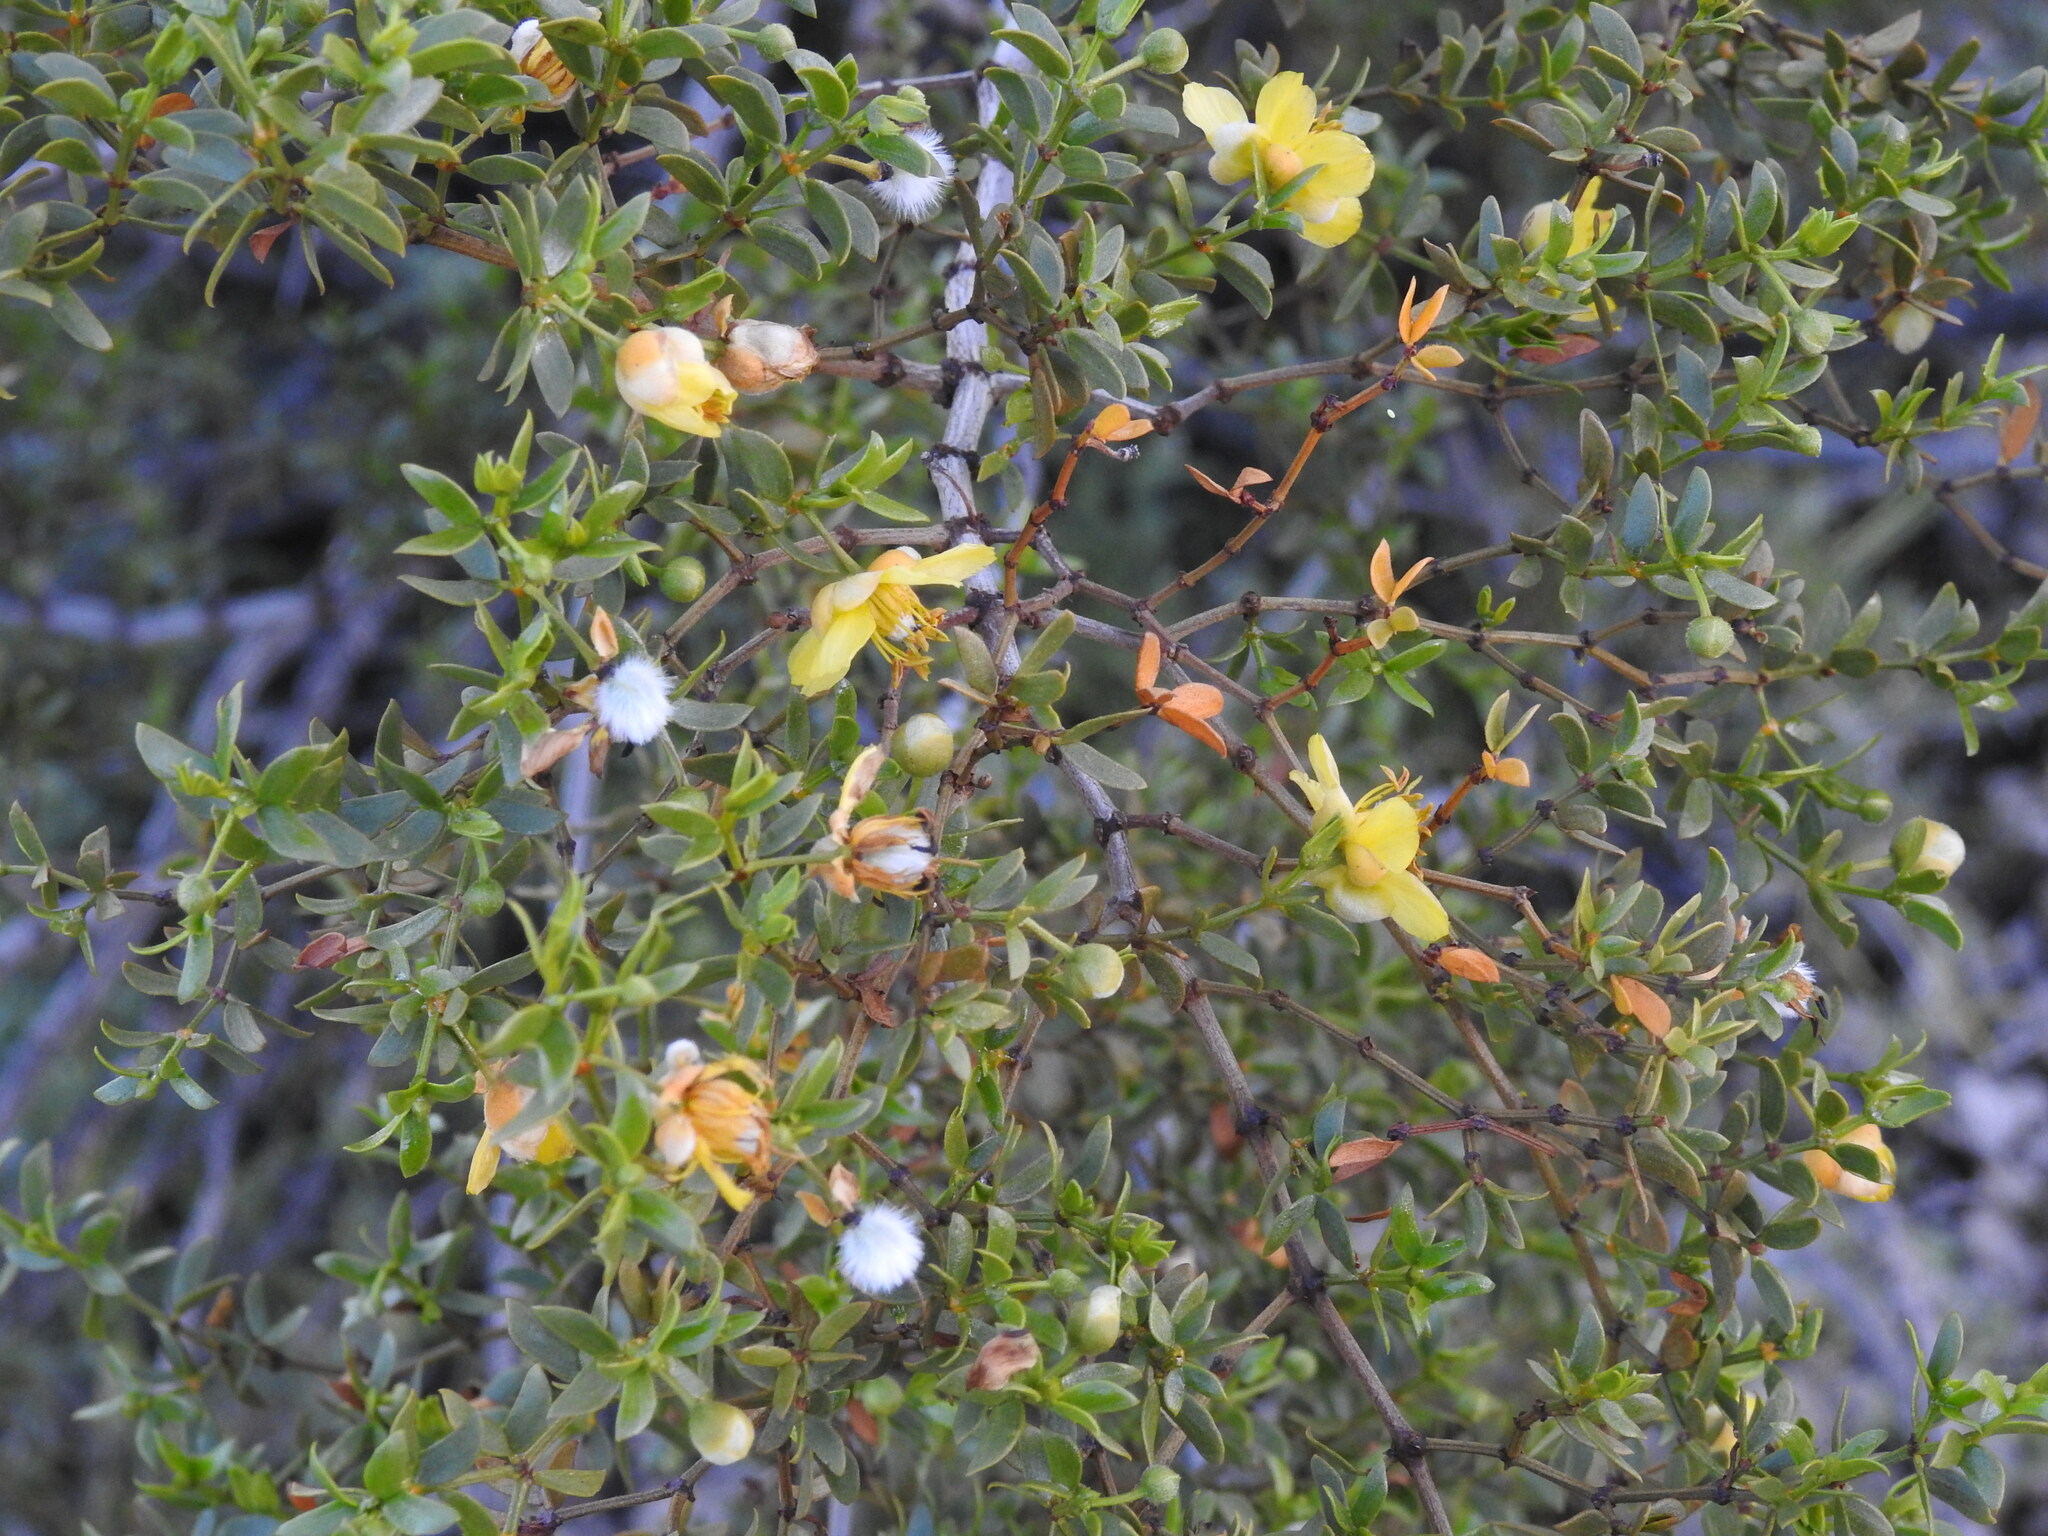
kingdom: Plantae
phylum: Tracheophyta
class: Magnoliopsida
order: Zygophyllales
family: Zygophyllaceae
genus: Larrea
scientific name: Larrea tridentata
